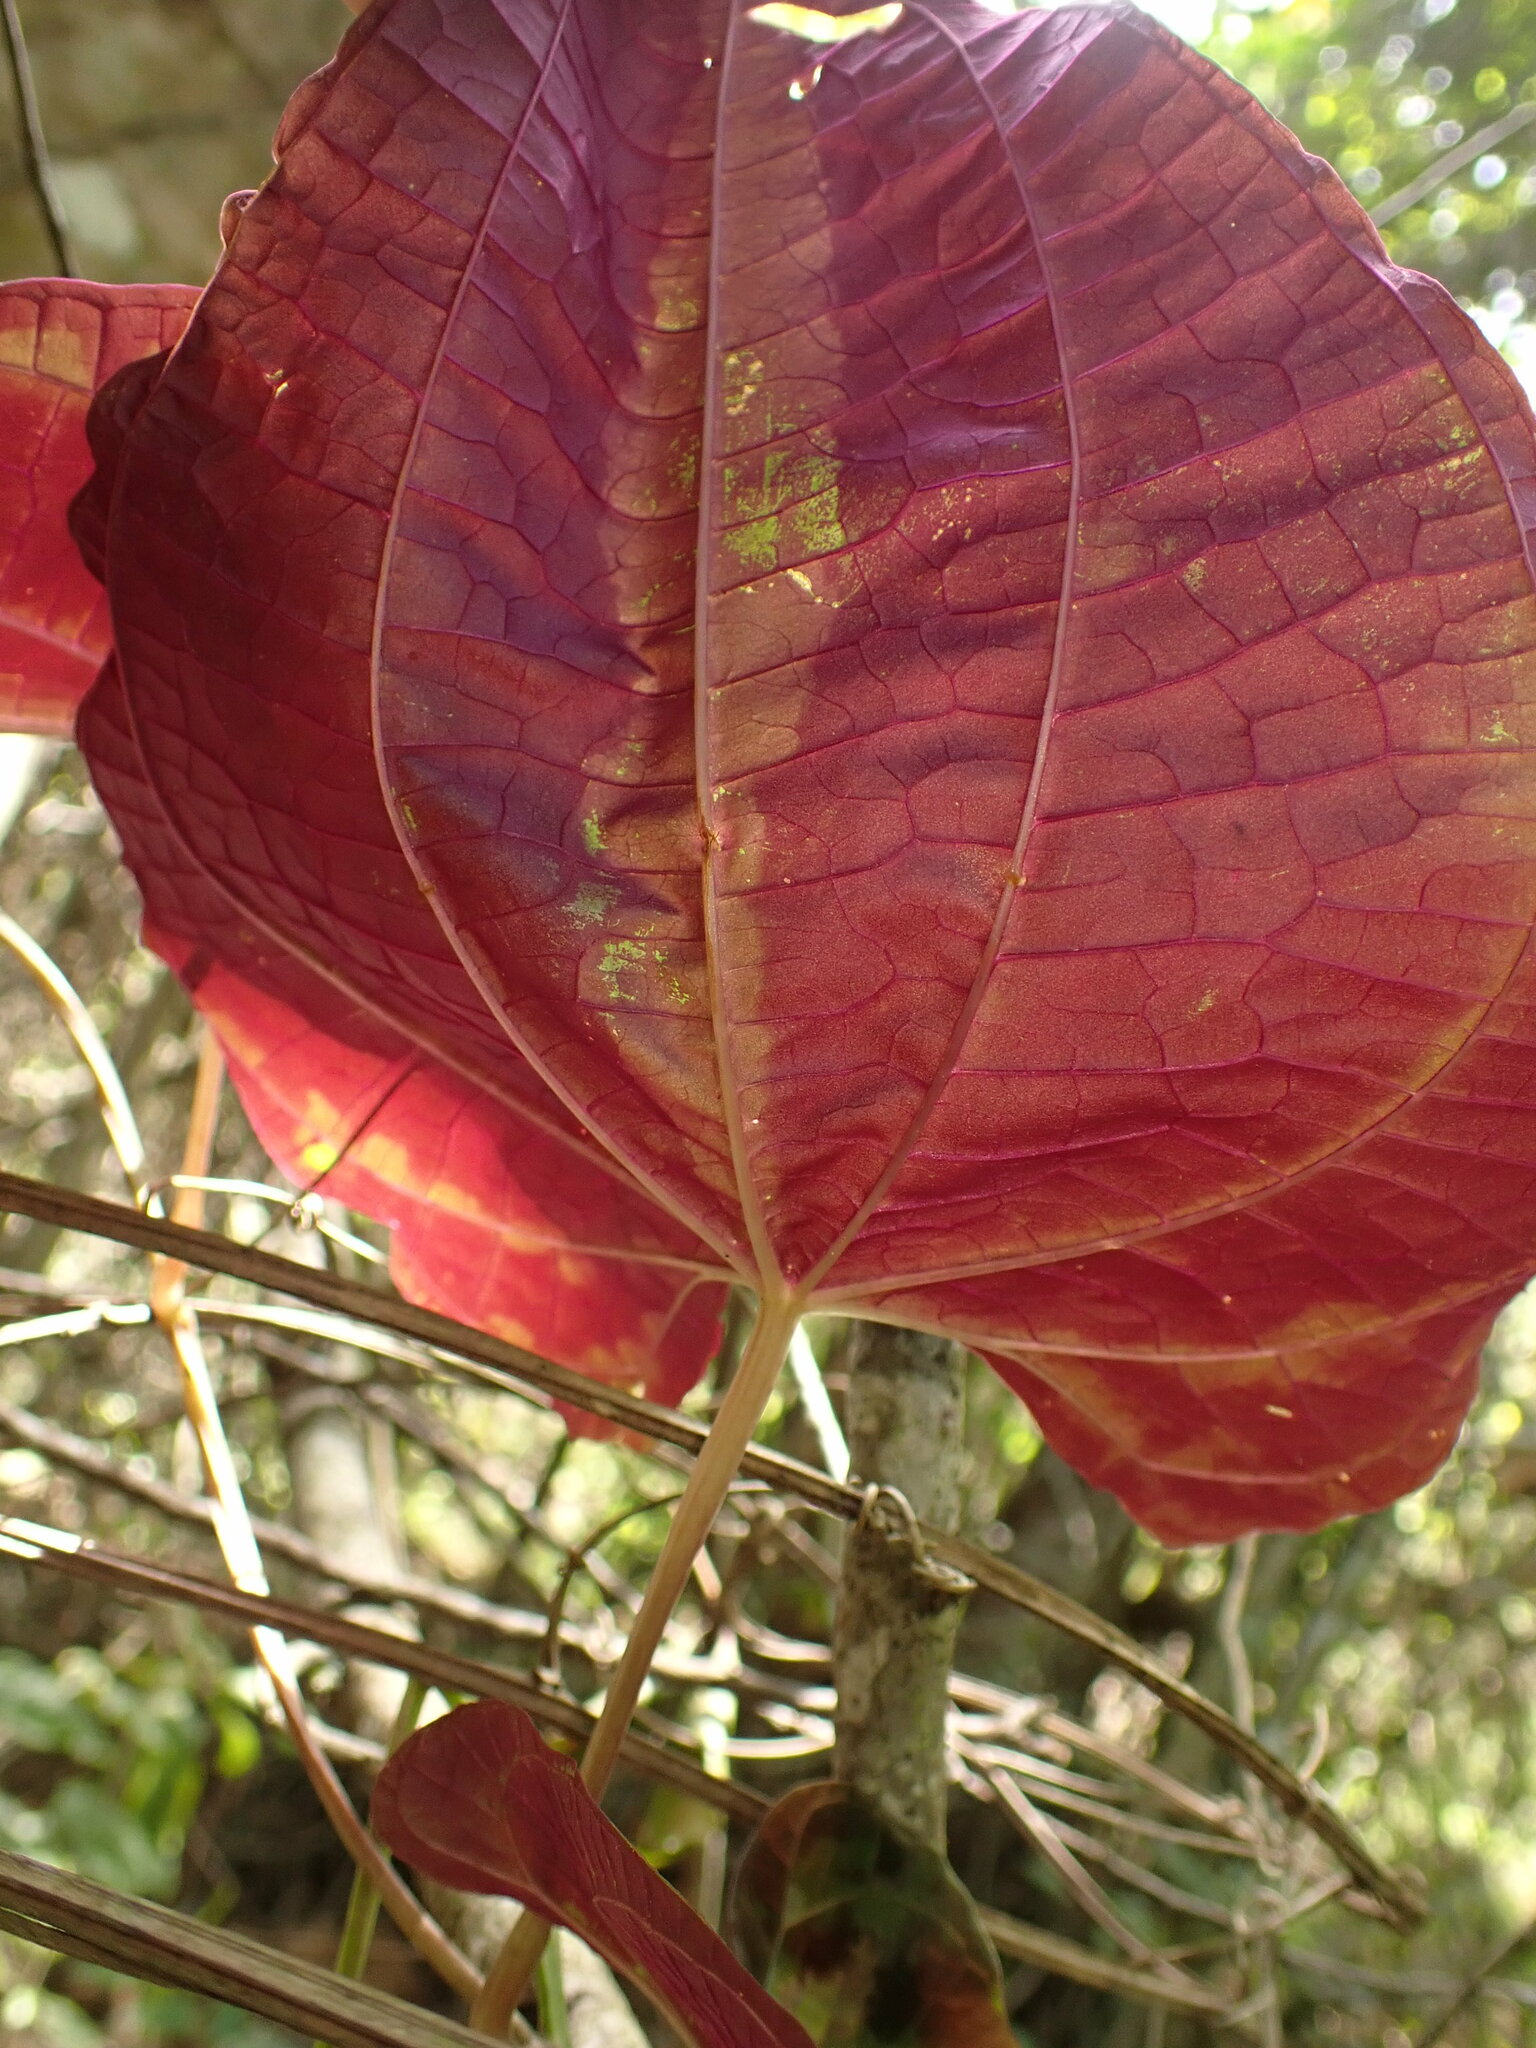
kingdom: Plantae
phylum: Tracheophyta
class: Liliopsida
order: Dioscoreales
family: Dioscoreaceae
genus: Dioscorea
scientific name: Dioscorea dodecaneura
